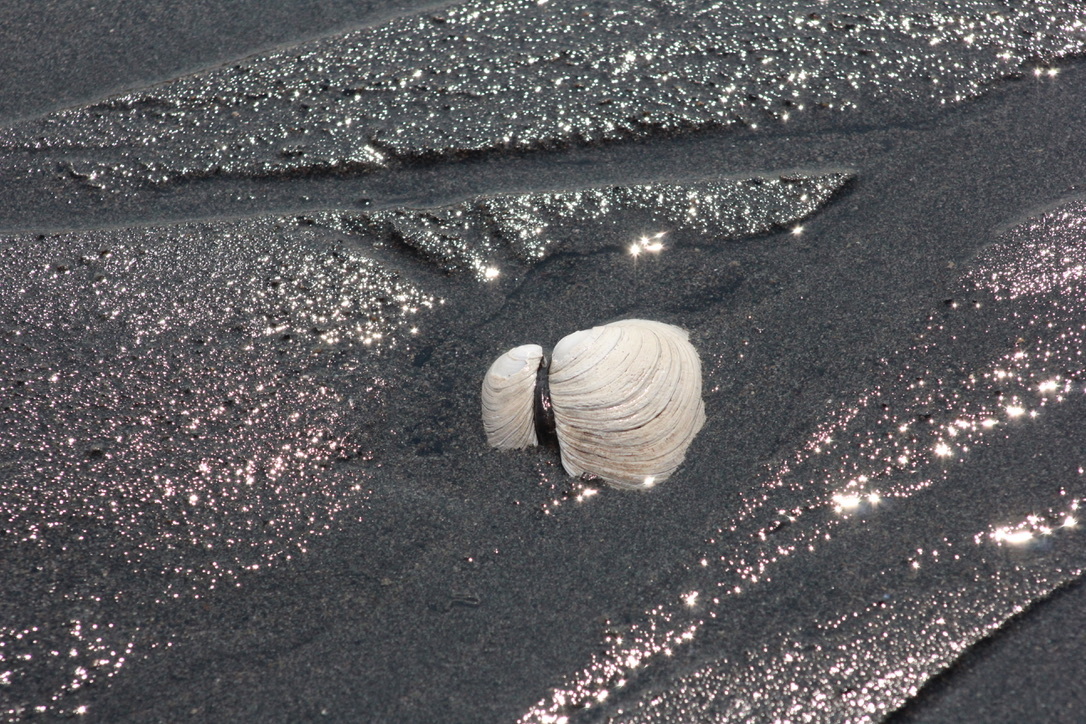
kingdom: Animalia
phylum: Mollusca
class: Bivalvia
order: Venerida
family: Veneridae
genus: Saxidomus
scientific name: Saxidomus gigantea
